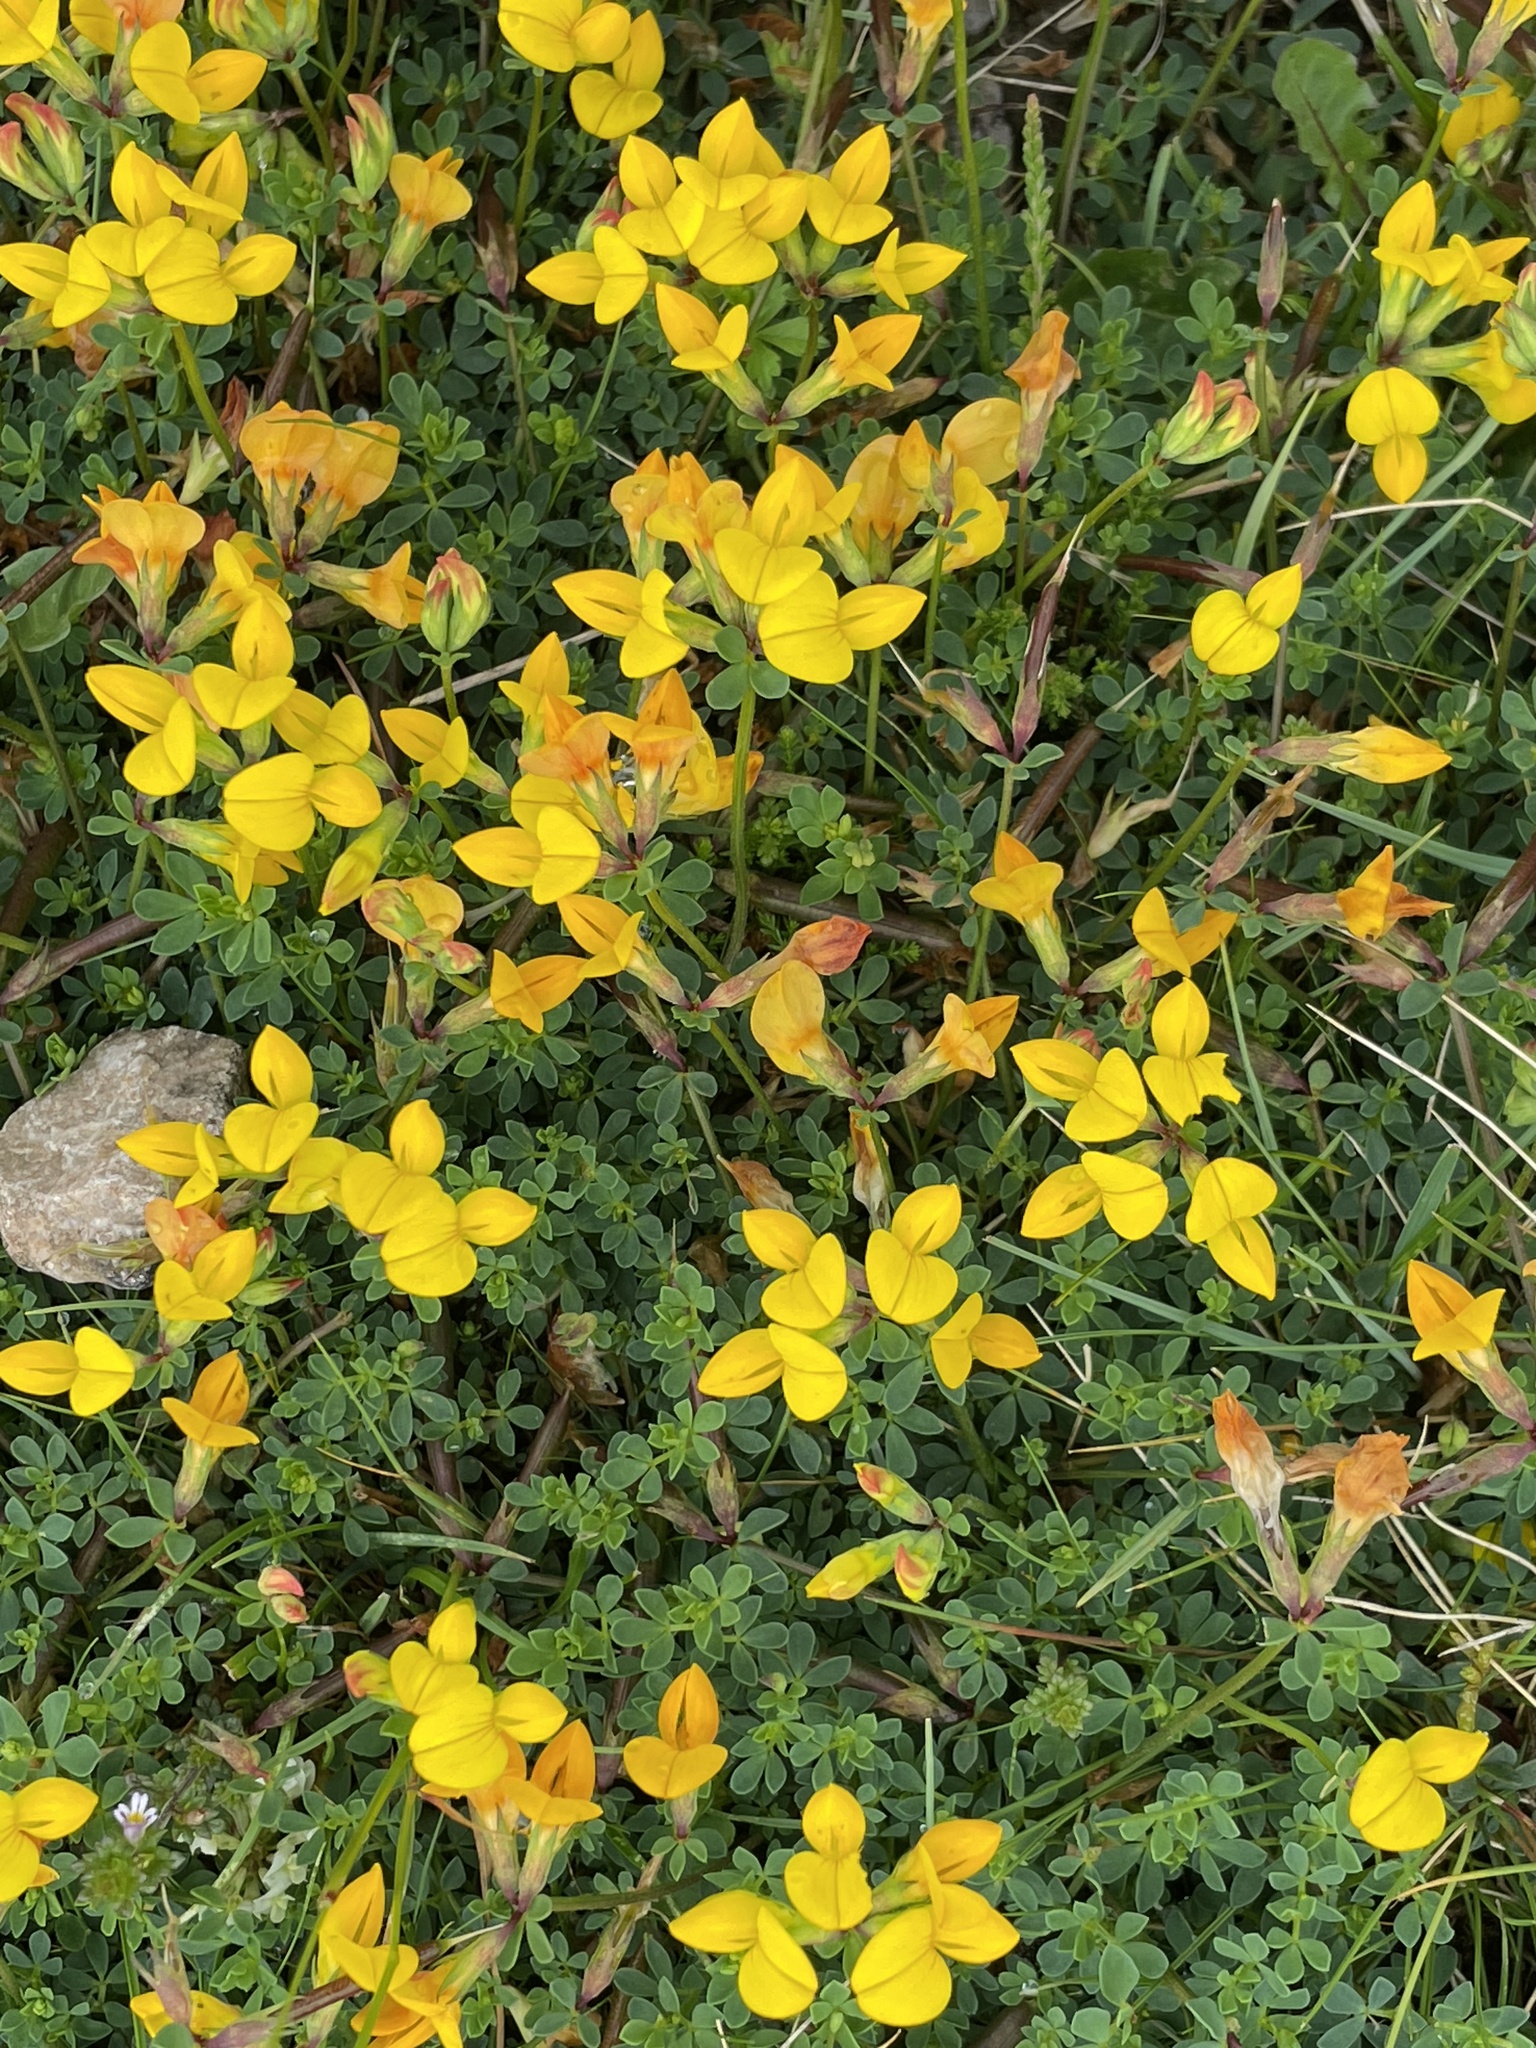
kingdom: Plantae
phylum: Tracheophyta
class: Magnoliopsida
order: Fabales
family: Fabaceae
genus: Lotus
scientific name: Lotus corniculatus
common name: Common bird's-foot-trefoil
